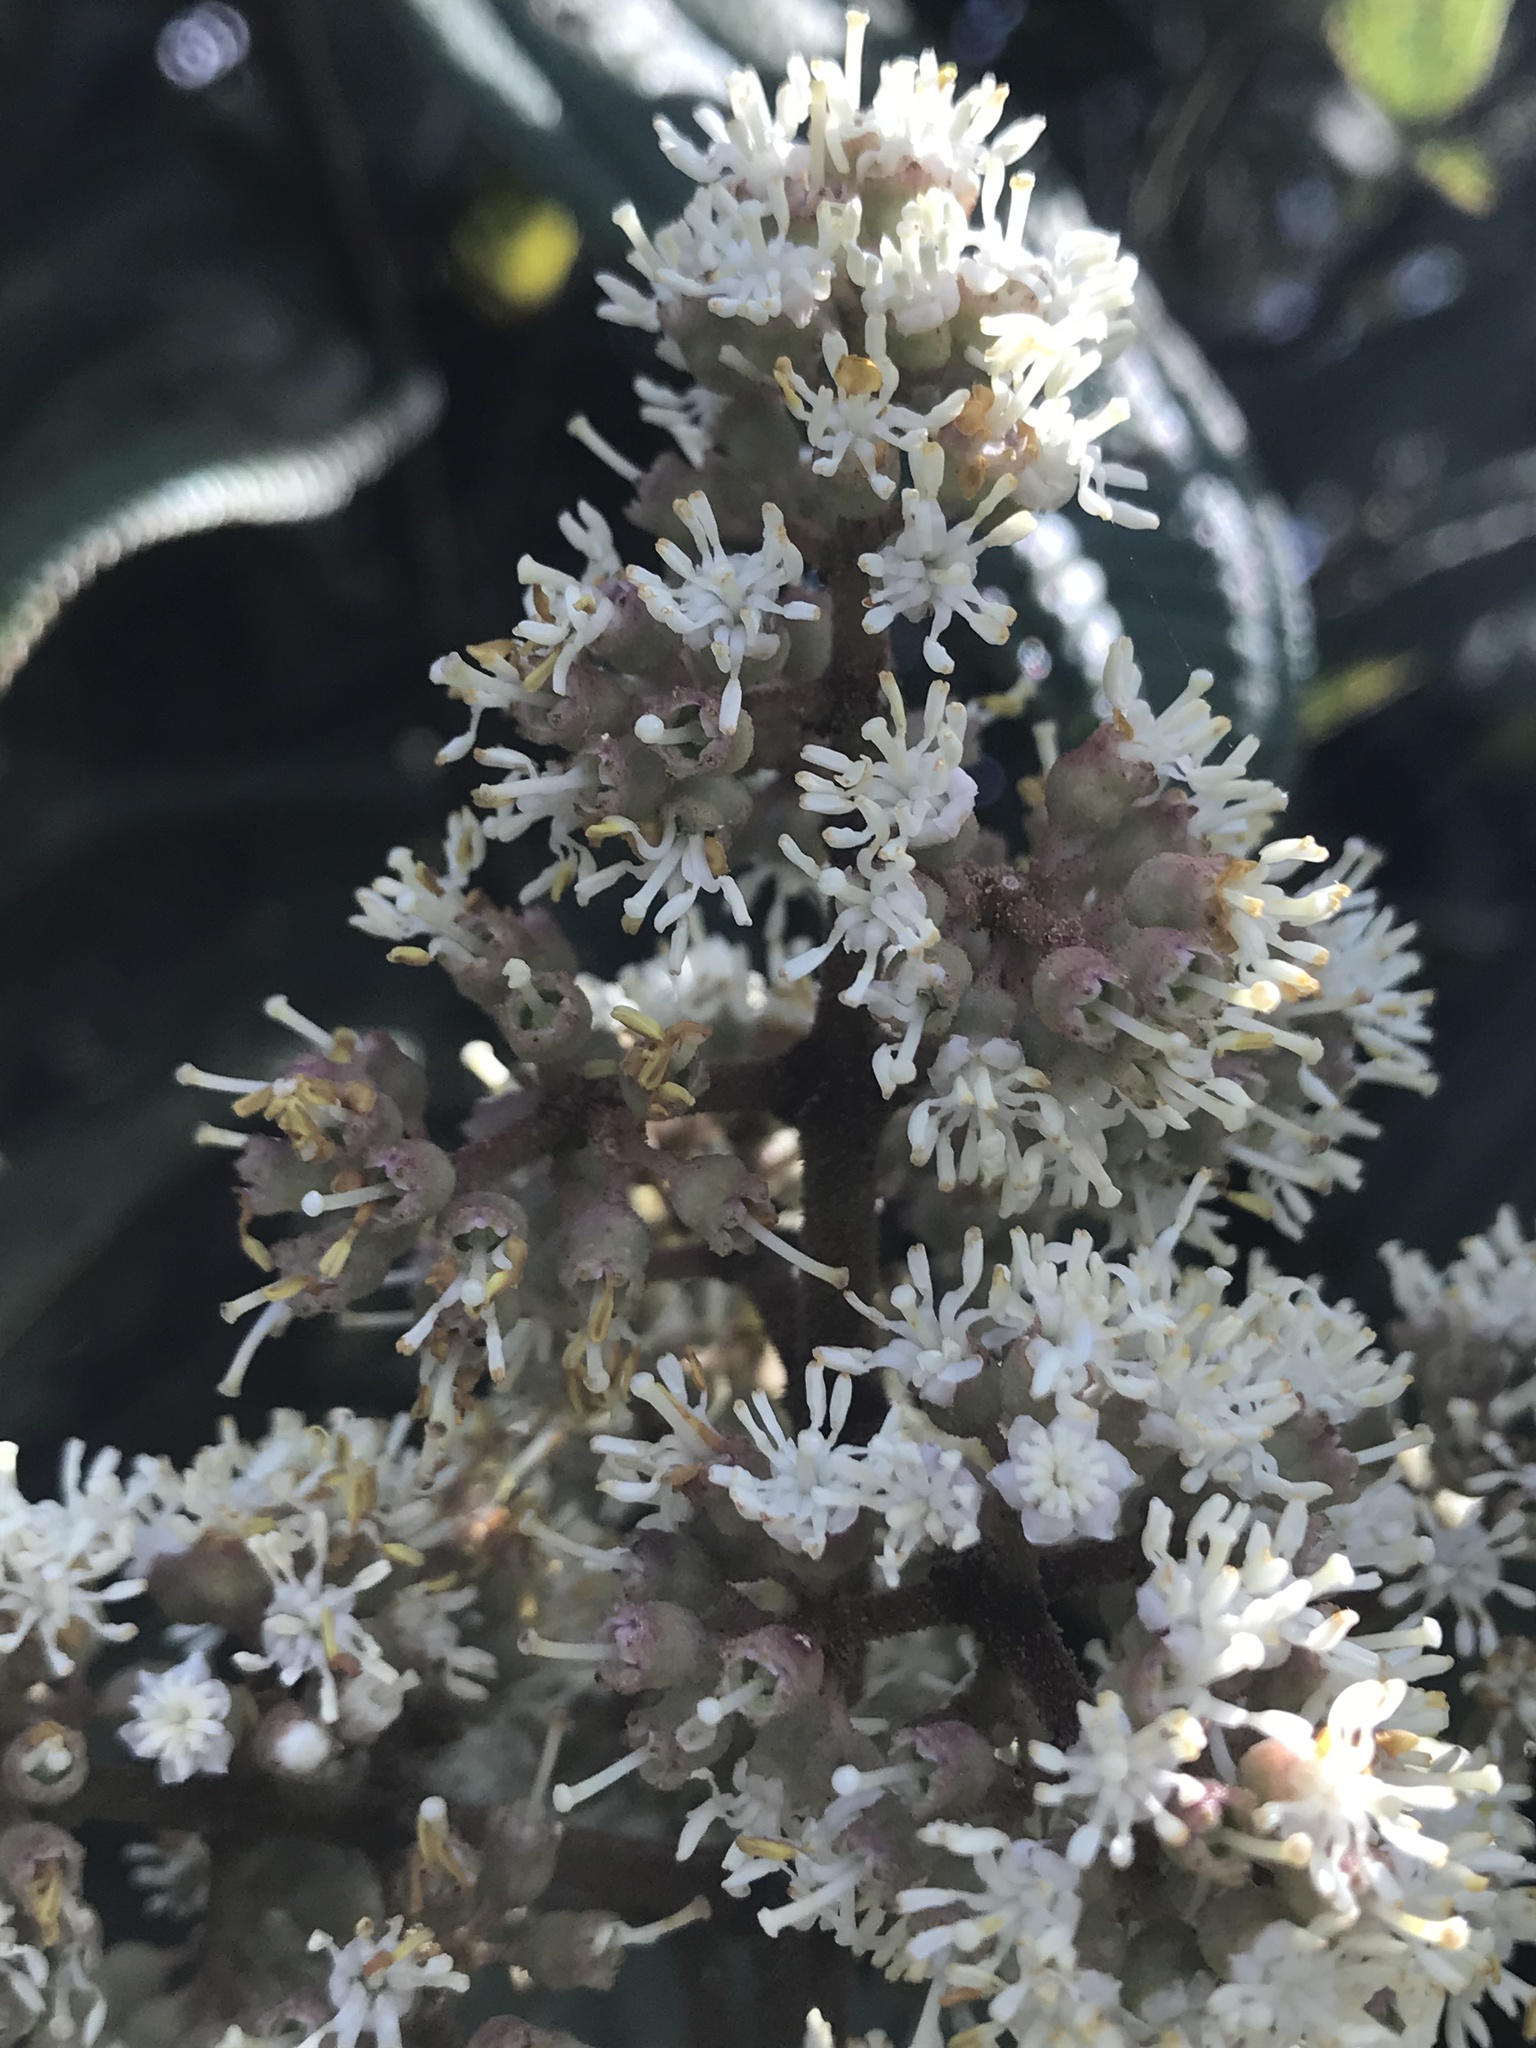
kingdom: Plantae
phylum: Tracheophyta
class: Magnoliopsida
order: Myrtales
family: Melastomataceae
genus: Miconia
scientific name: Miconia biappendiculata
